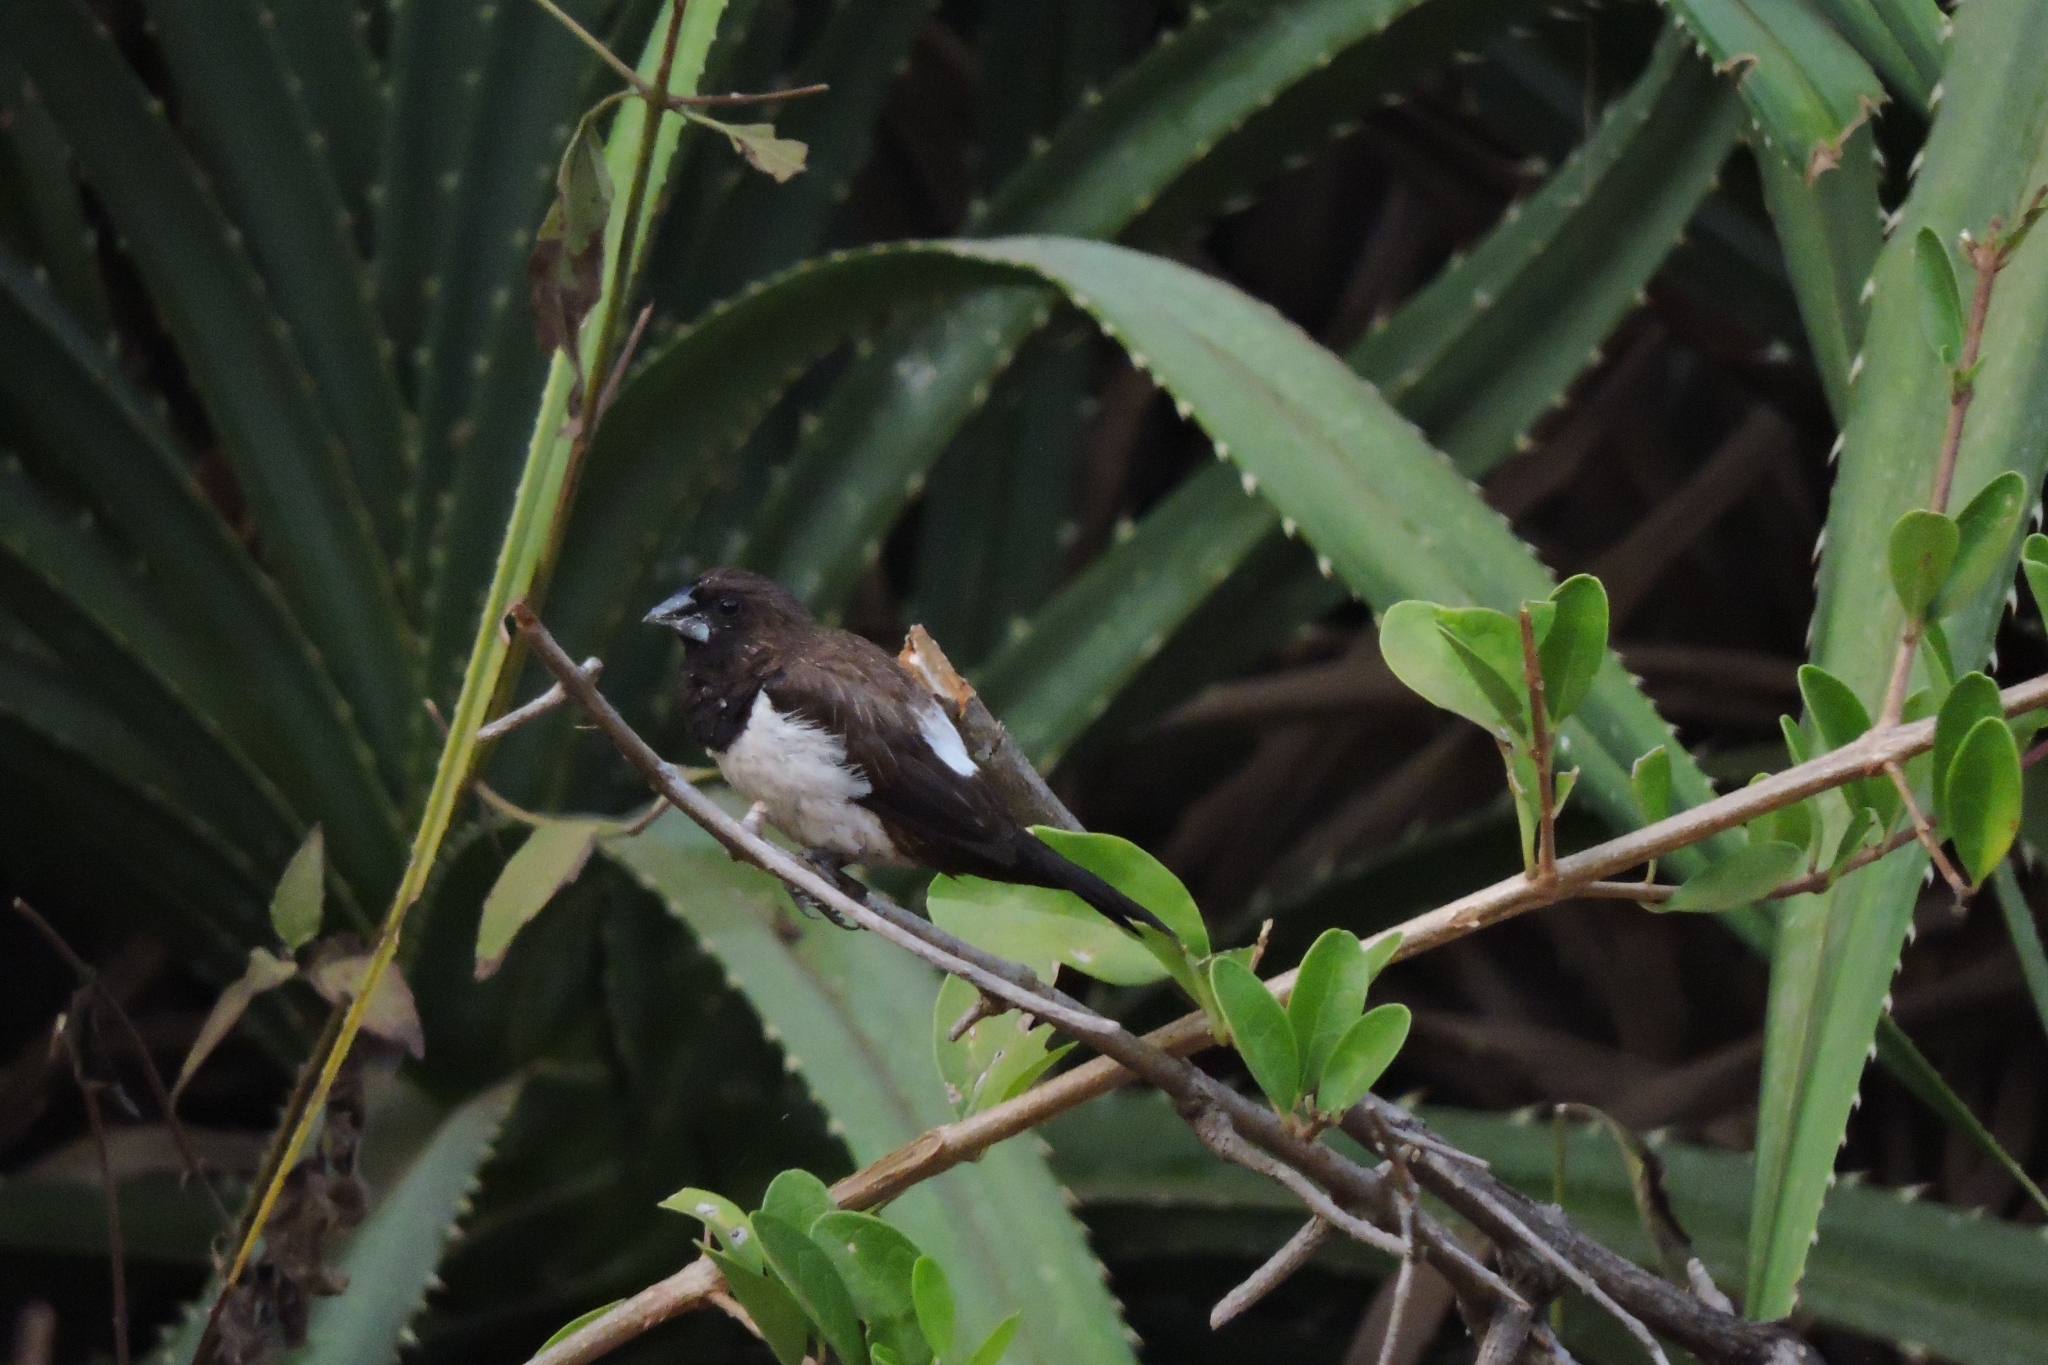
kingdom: Animalia
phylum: Chordata
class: Aves
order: Passeriformes
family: Estrildidae
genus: Lonchura
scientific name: Lonchura striata
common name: White-rumped munia
